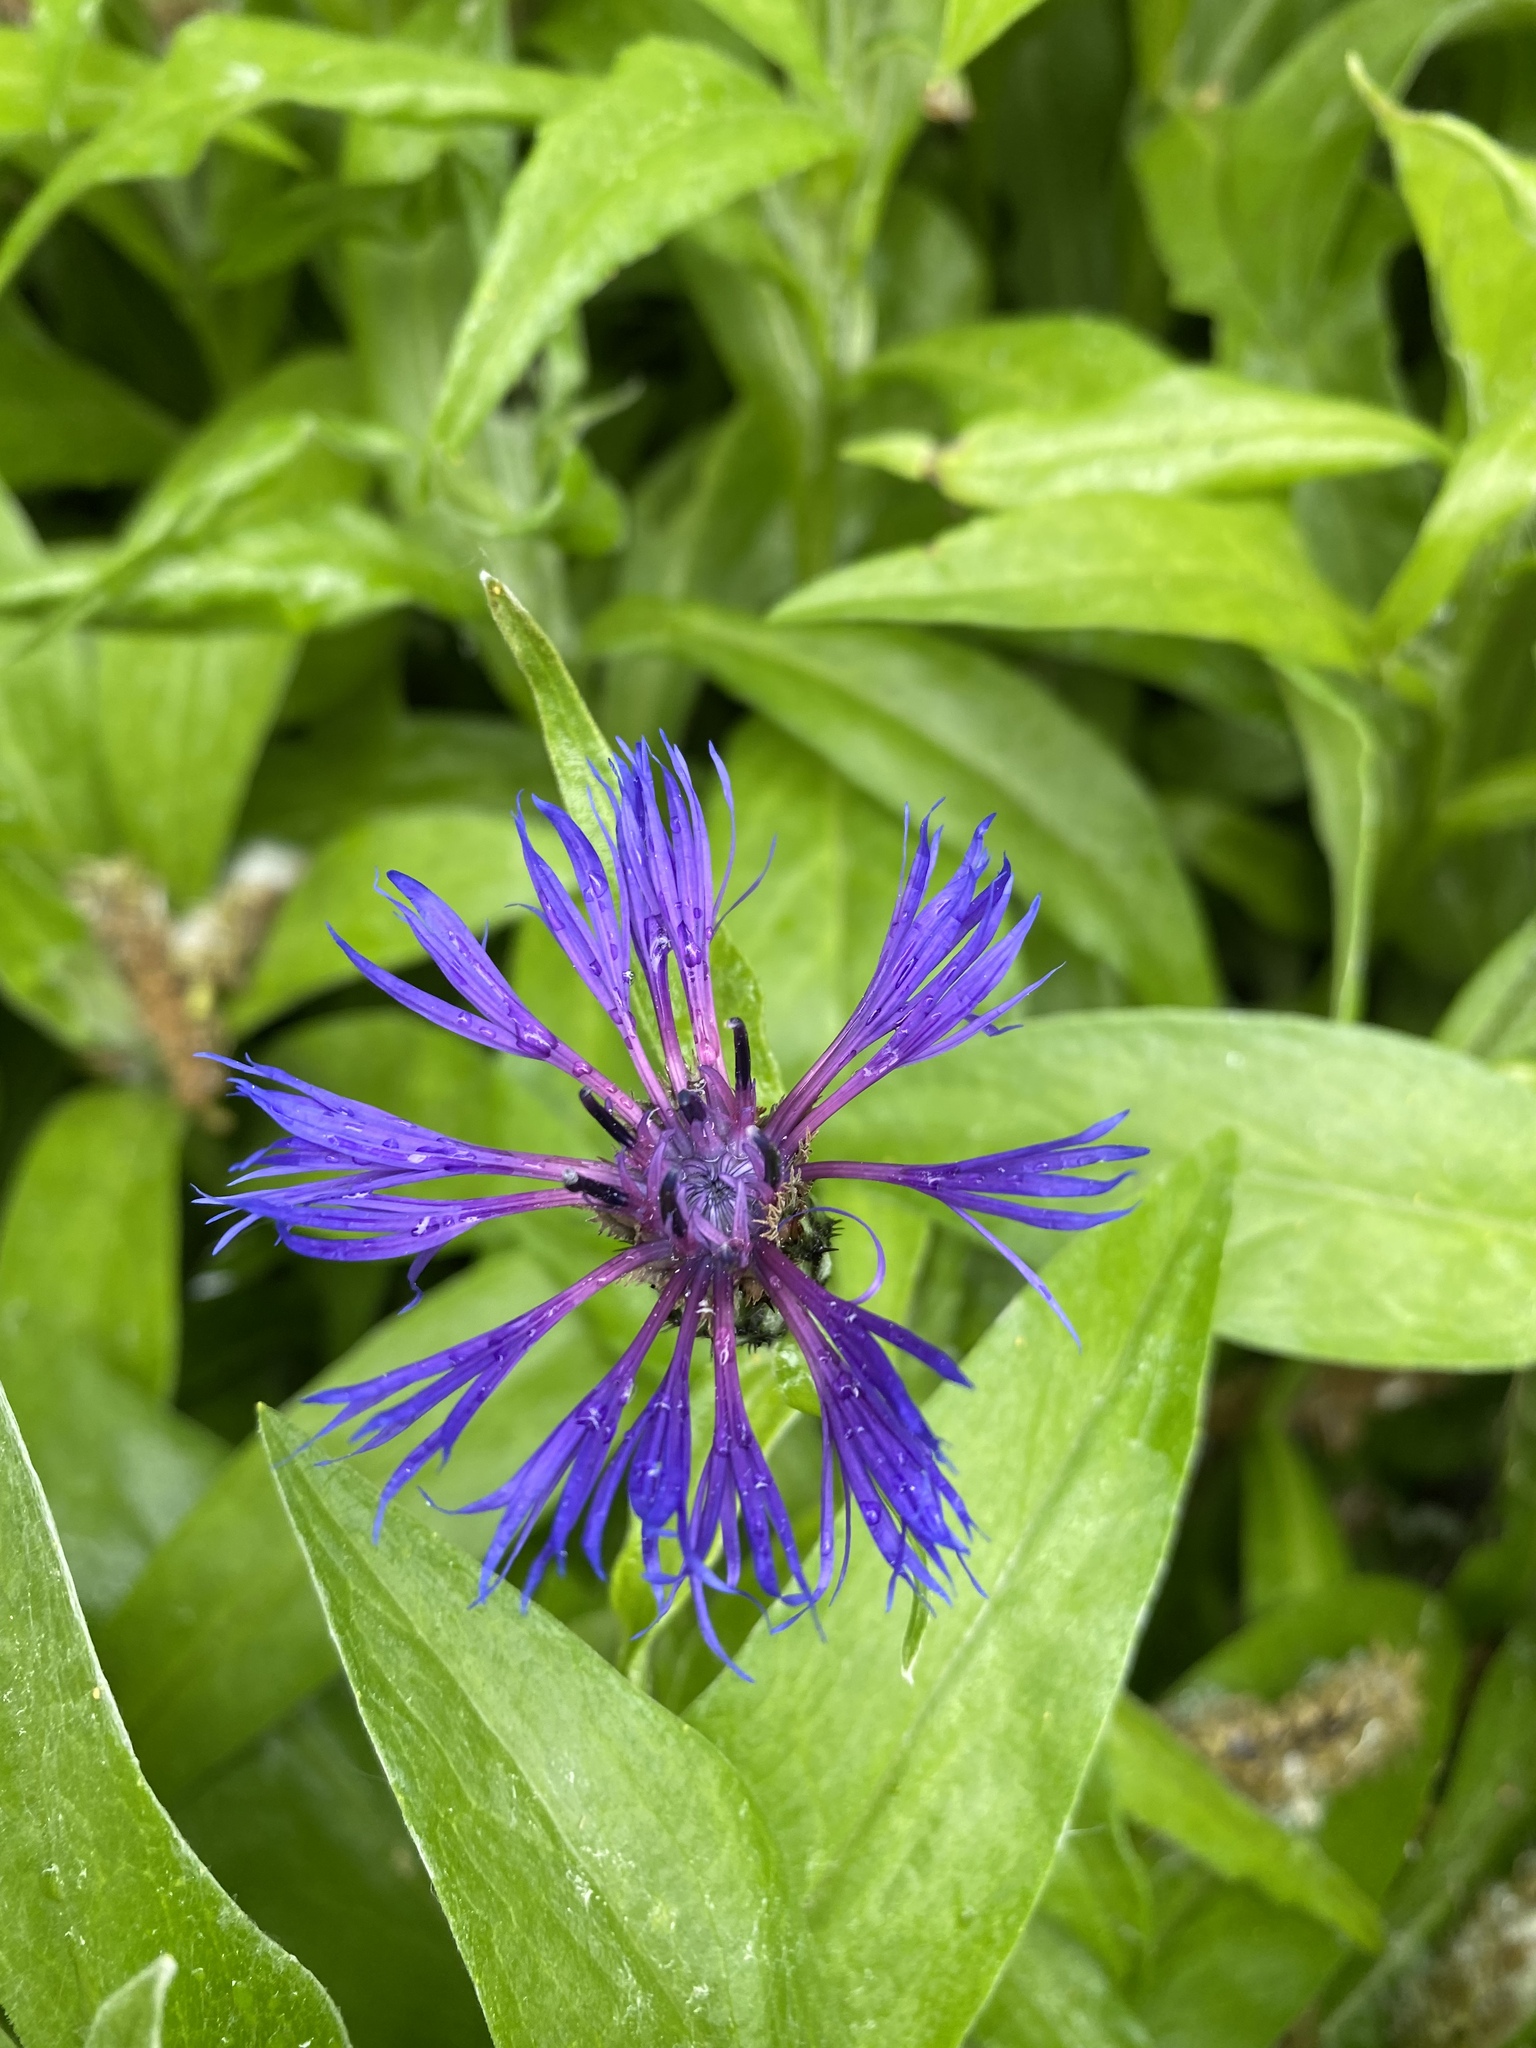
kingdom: Plantae
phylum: Tracheophyta
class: Magnoliopsida
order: Asterales
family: Asteraceae
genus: Centaurea
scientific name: Centaurea montana
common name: Perennial cornflower
